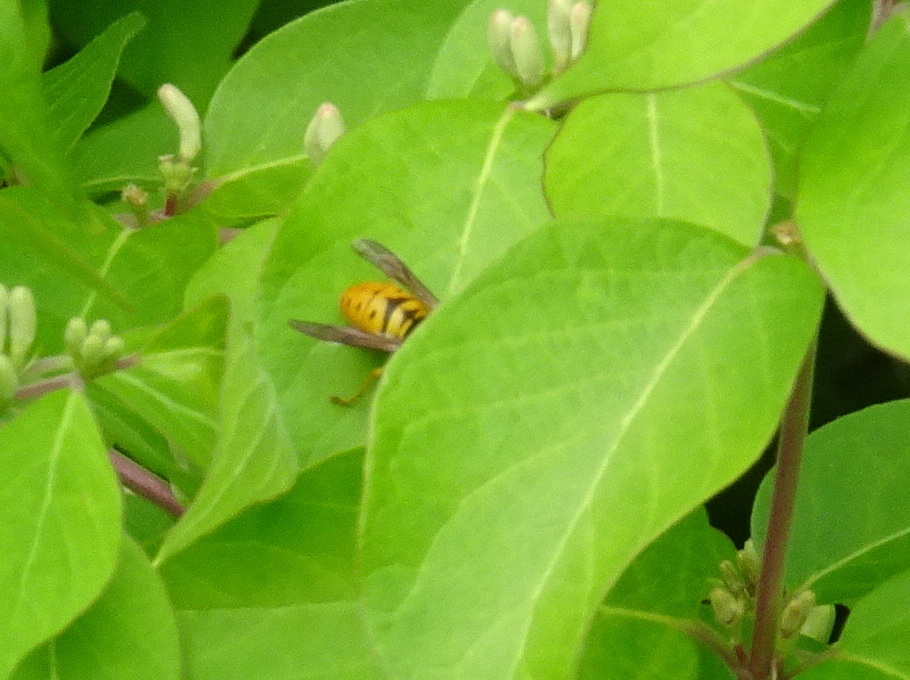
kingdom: Animalia
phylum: Arthropoda
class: Insecta
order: Hymenoptera
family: Vespidae
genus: Vespula
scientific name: Vespula maculifrons
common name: Eastern yellowjacket
